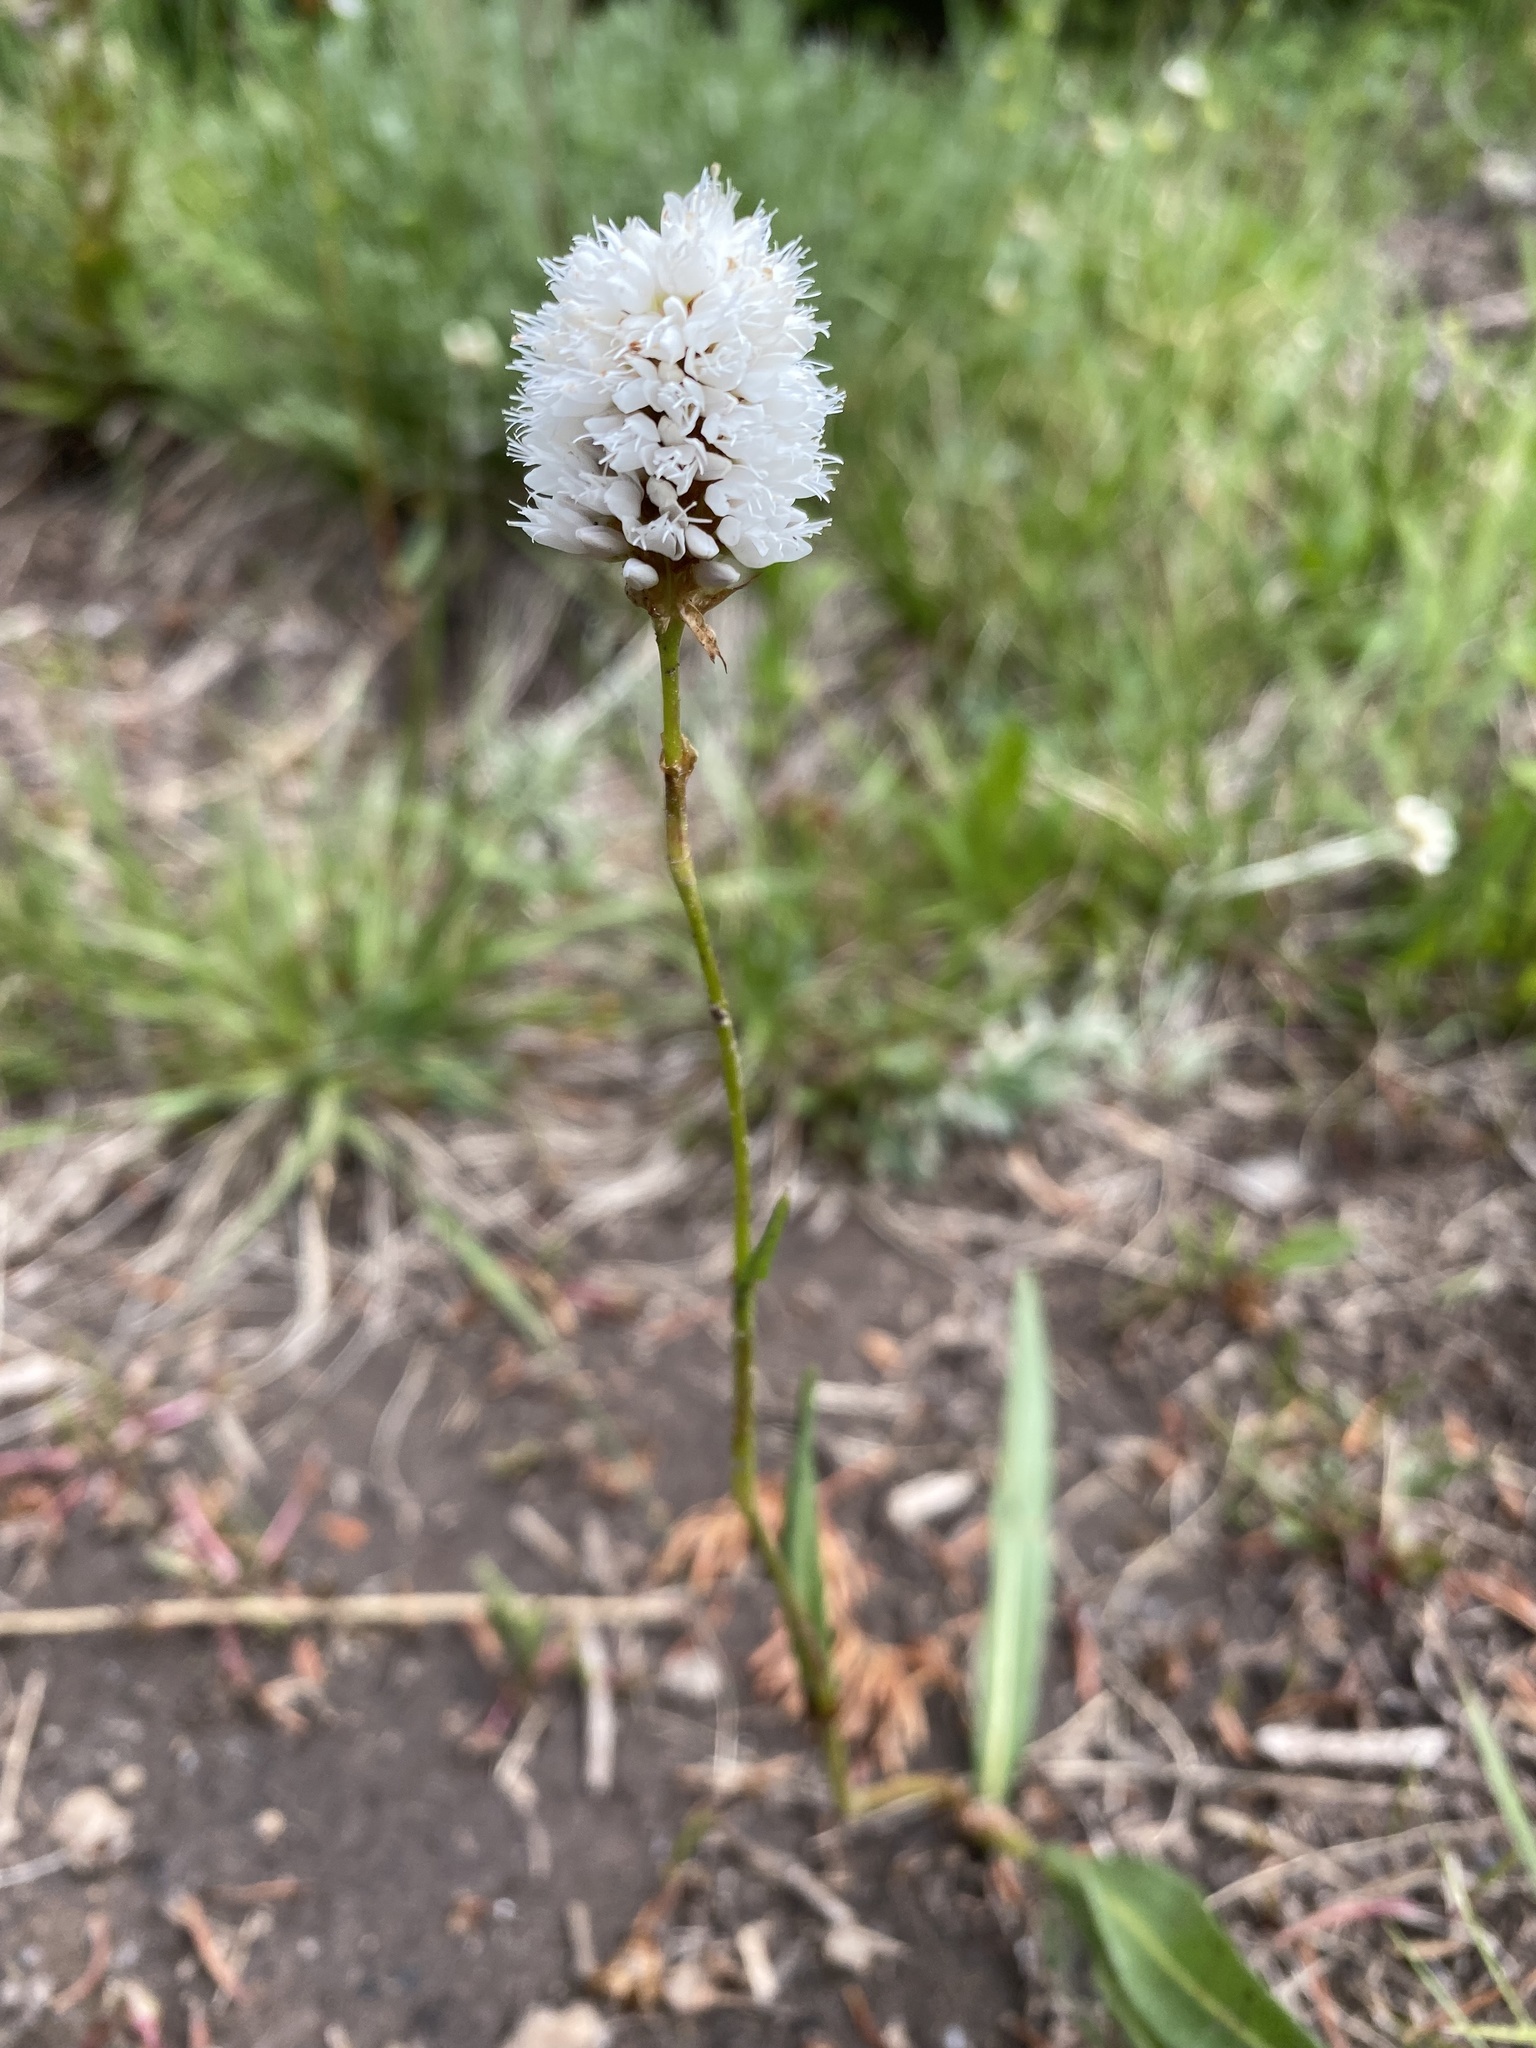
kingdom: Plantae
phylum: Tracheophyta
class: Magnoliopsida
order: Caryophyllales
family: Polygonaceae
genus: Bistorta
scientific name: Bistorta bistortoides
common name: American bistort
